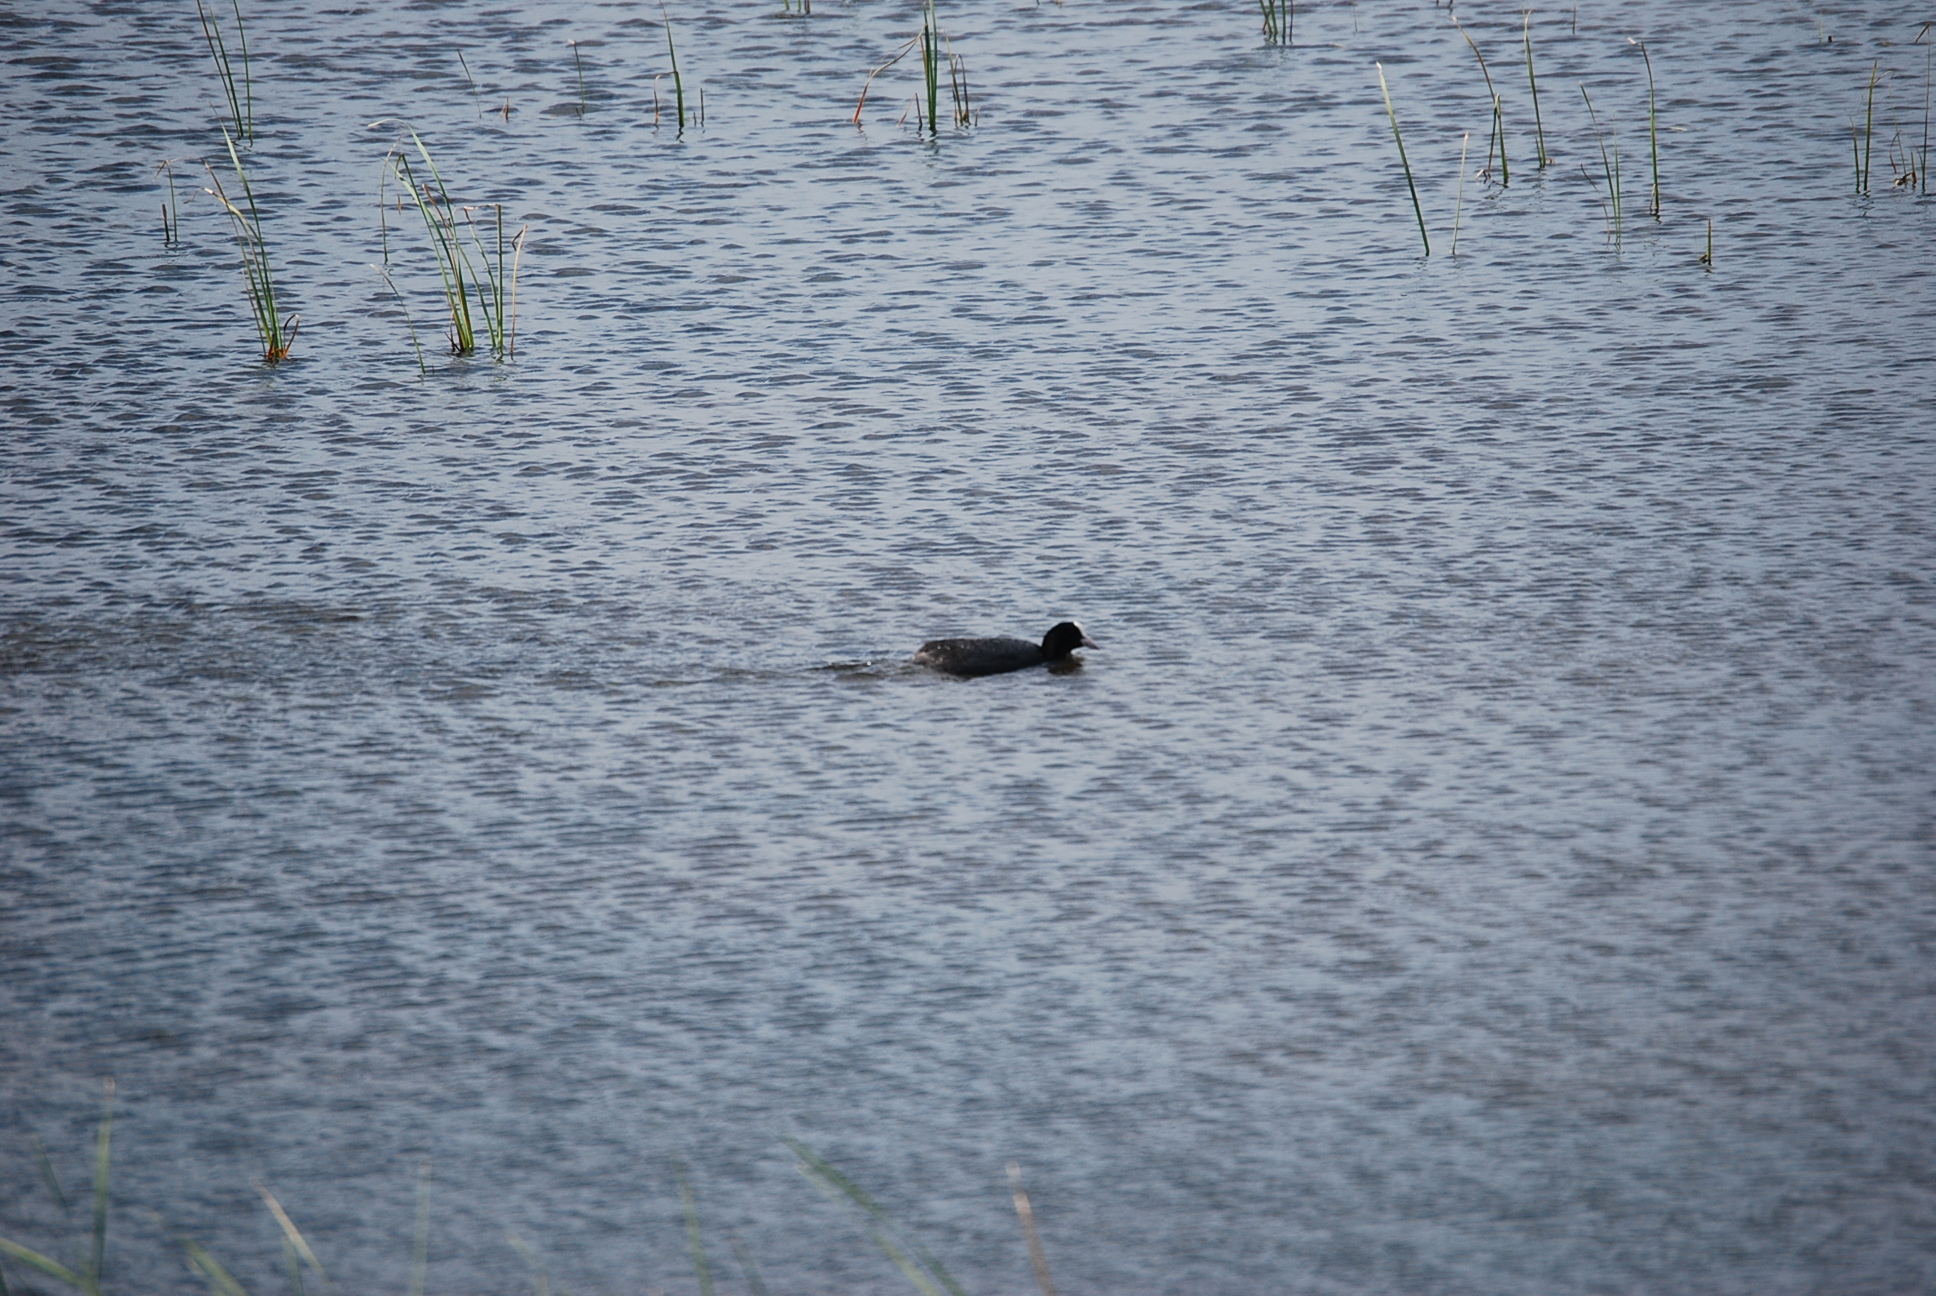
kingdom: Animalia
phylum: Chordata
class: Aves
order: Gruiformes
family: Rallidae
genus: Fulica
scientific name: Fulica atra
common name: Eurasian coot
